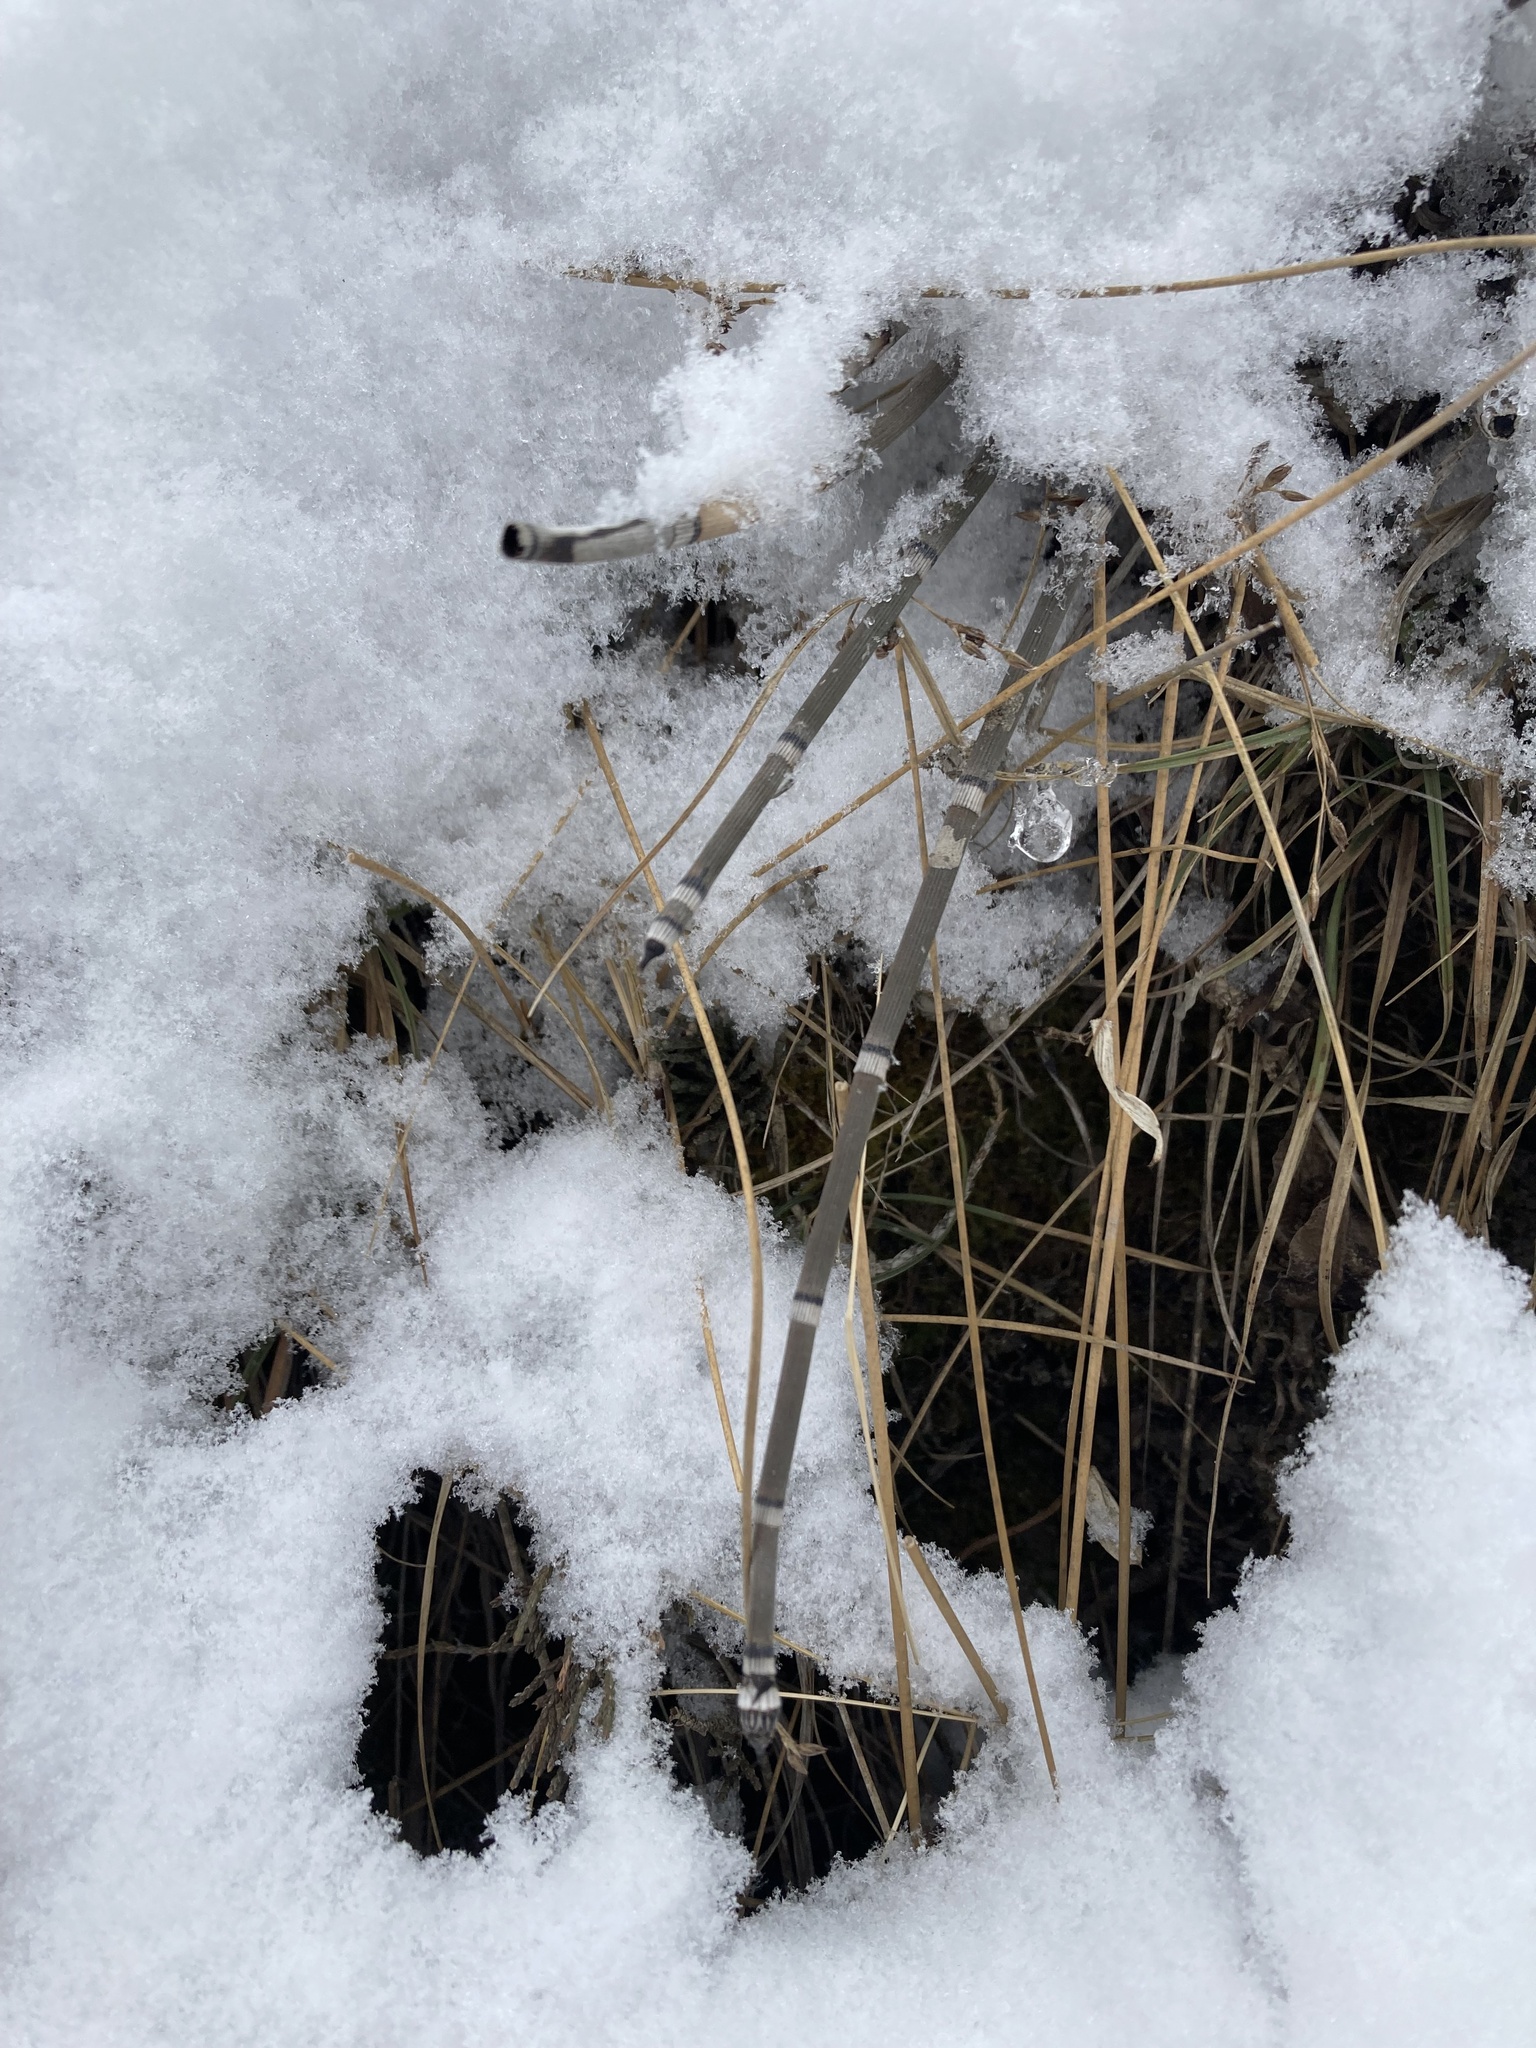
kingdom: Plantae
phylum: Tracheophyta
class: Polypodiopsida
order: Equisetales
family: Equisetaceae
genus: Equisetum
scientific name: Equisetum hyemale
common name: Rough horsetail
